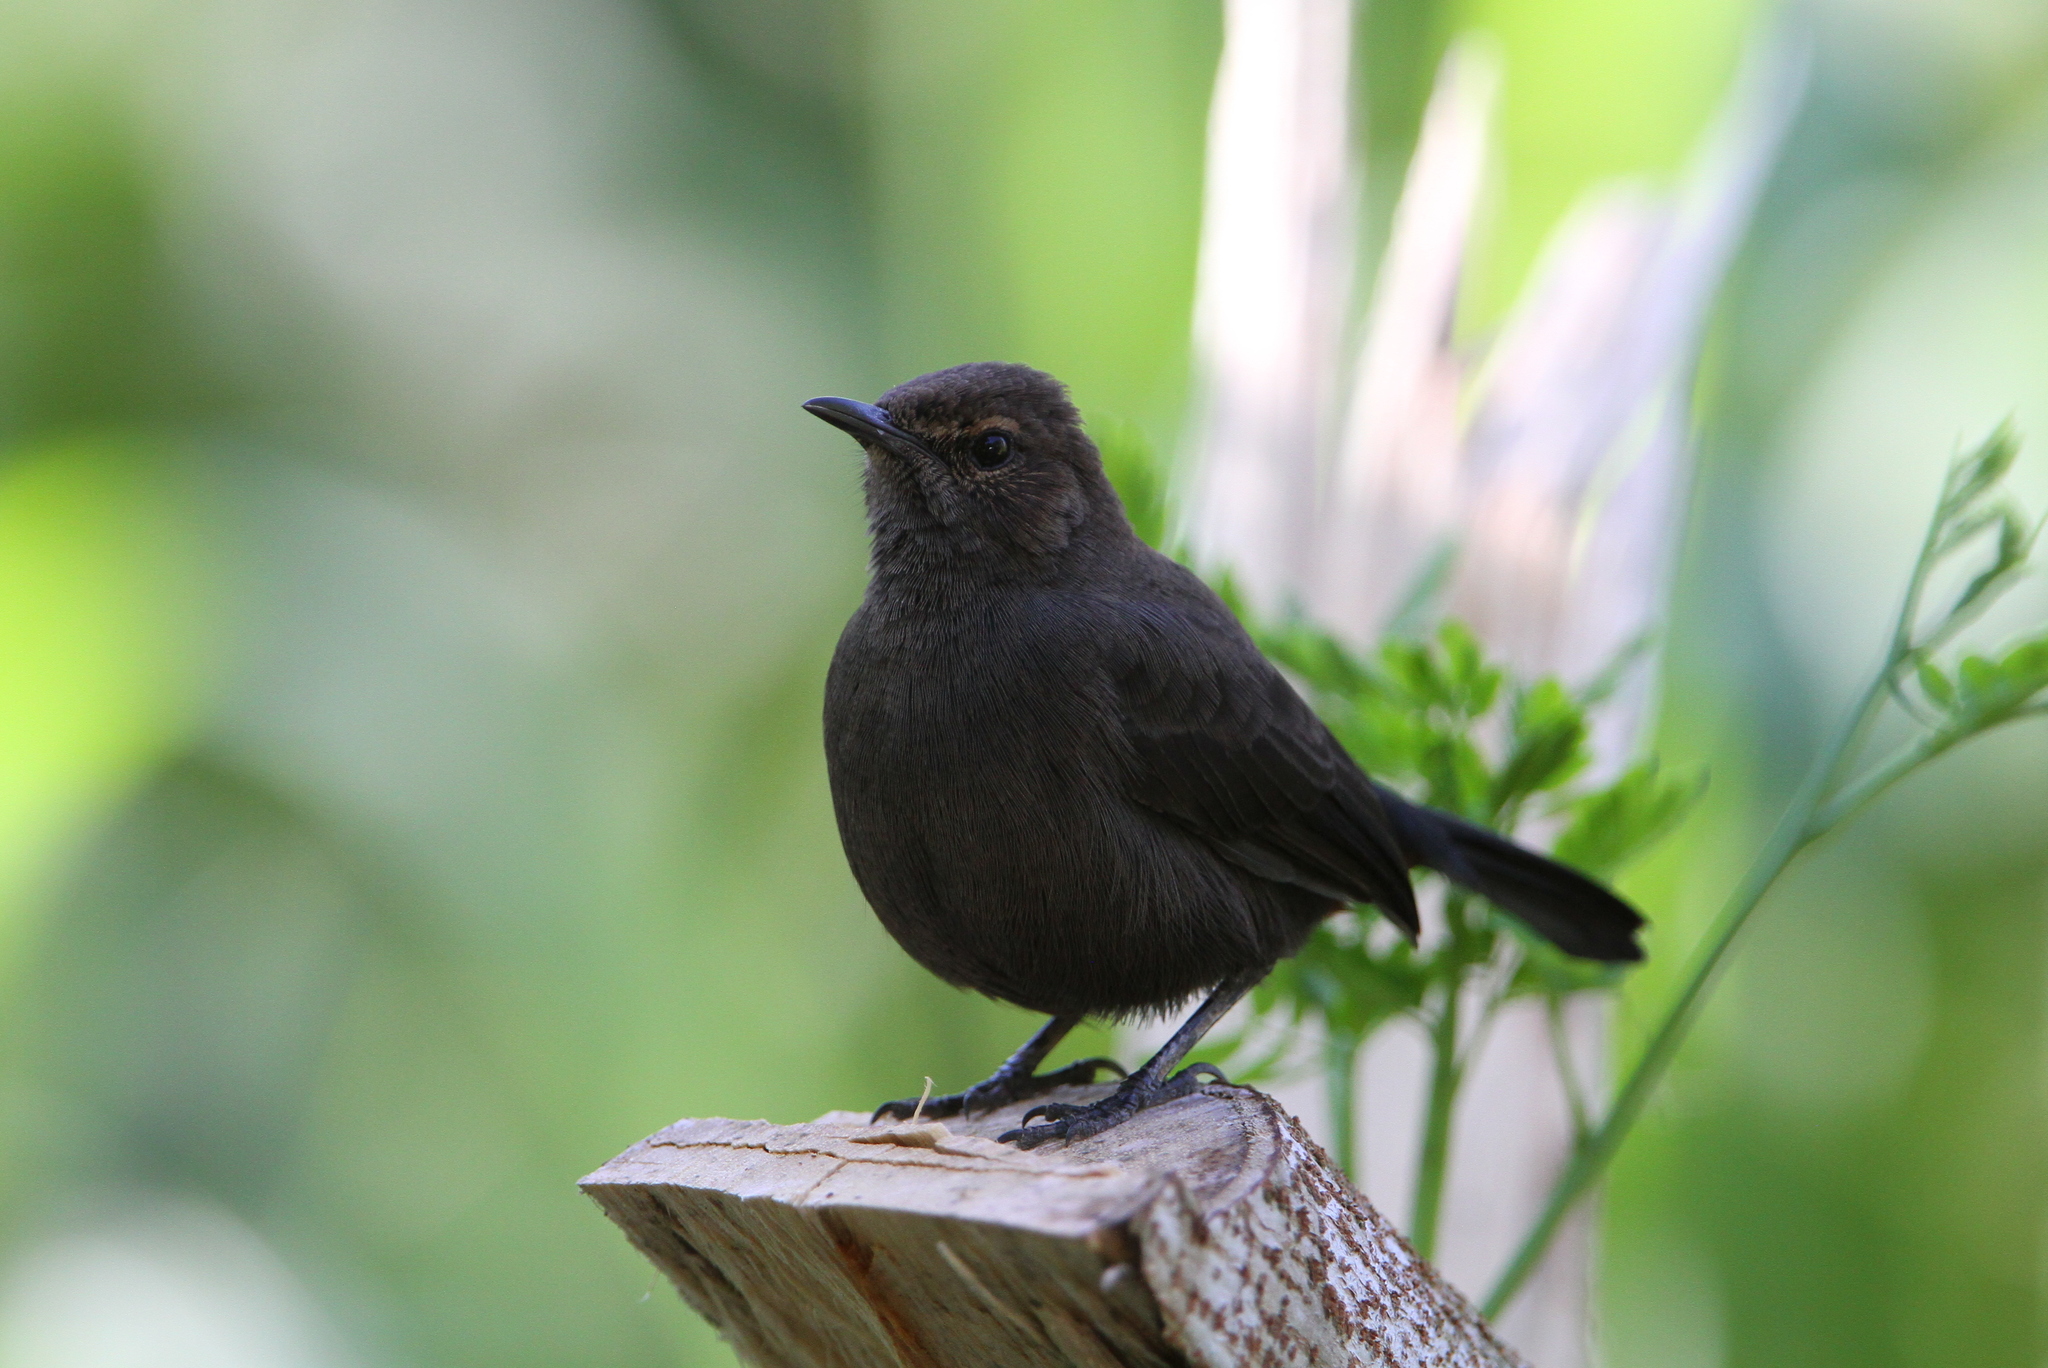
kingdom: Animalia
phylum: Chordata
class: Aves
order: Passeriformes
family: Muscicapidae
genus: Saxicoloides
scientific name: Saxicoloides fulicatus
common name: Indian robin
